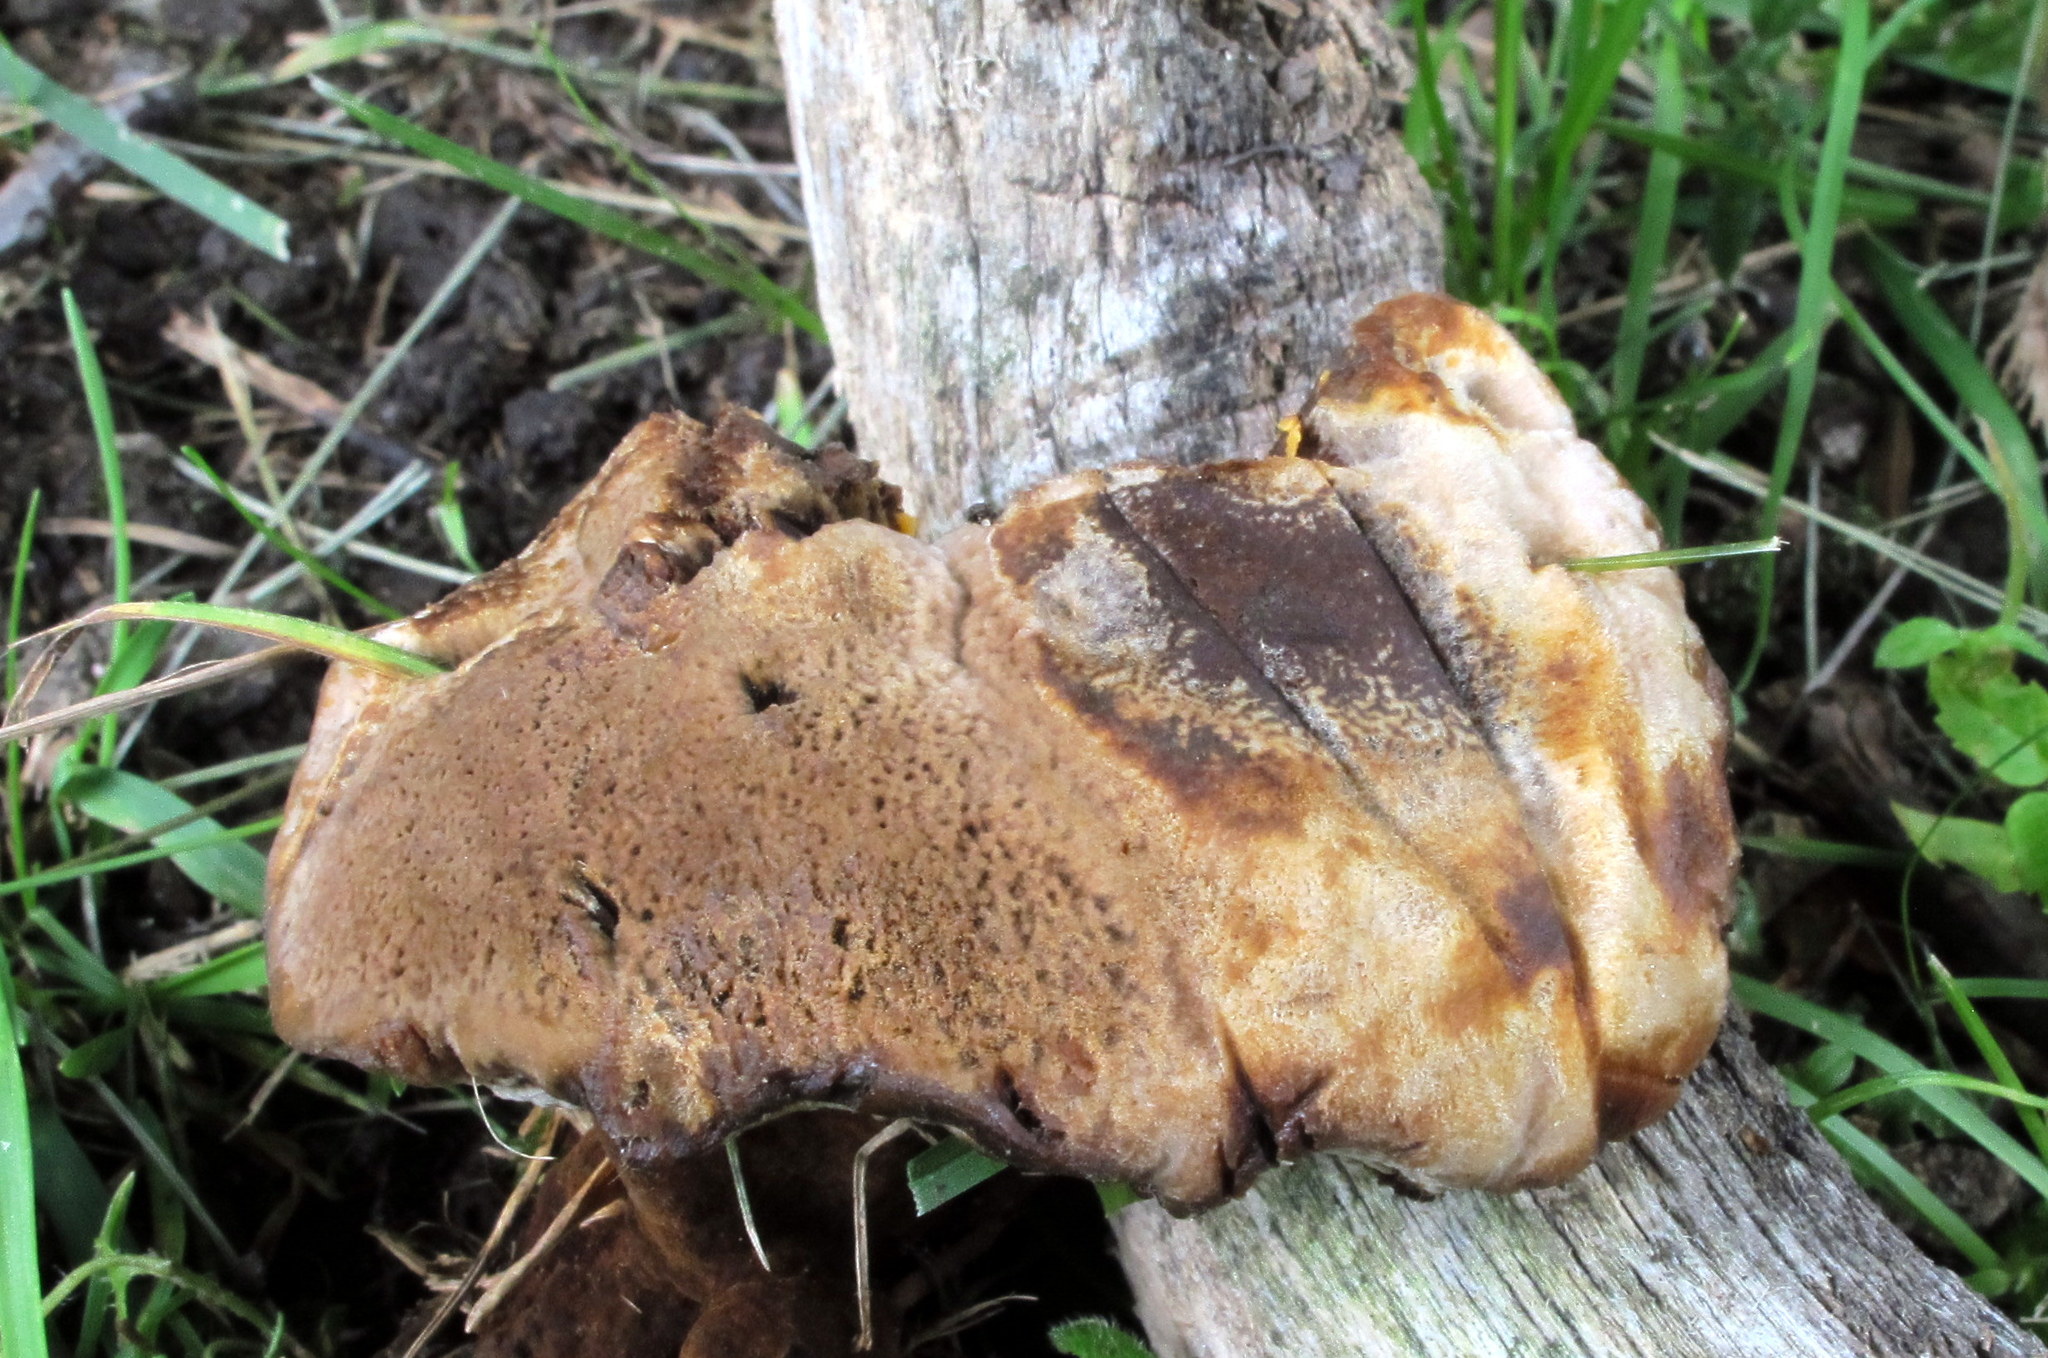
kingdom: Fungi
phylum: Basidiomycota
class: Agaricomycetes
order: Hymenochaetales
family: Hymenochaetaceae
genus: Coltricia
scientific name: Coltricia montagnei
